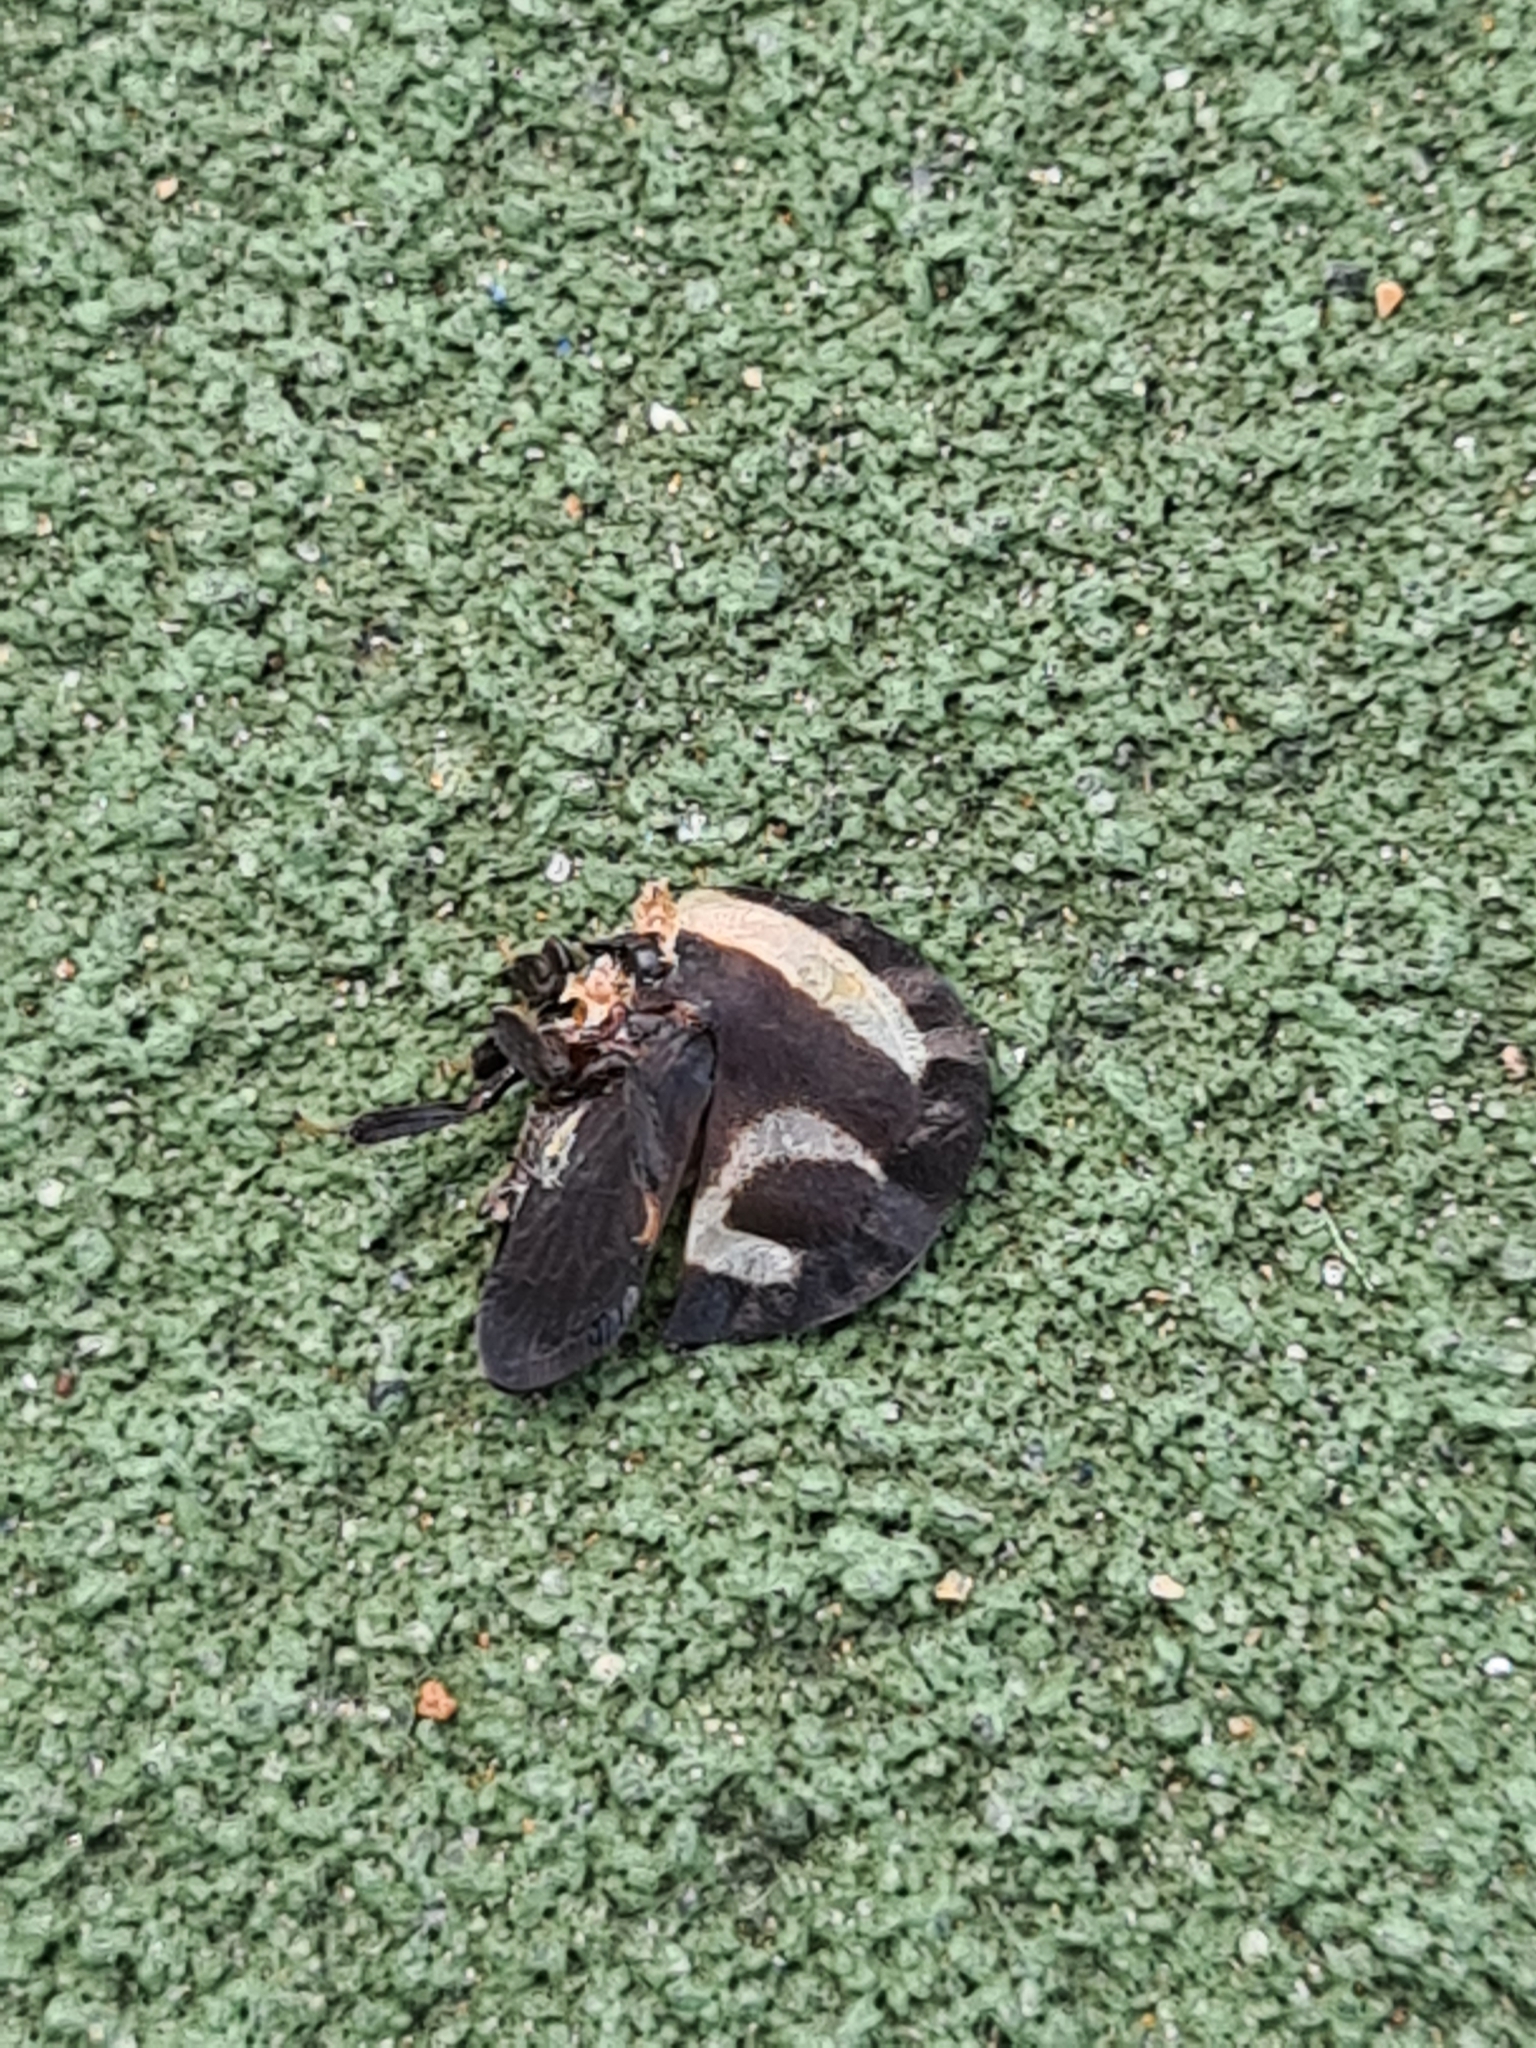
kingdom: Animalia
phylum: Arthropoda
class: Insecta
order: Hemiptera
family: Membracidae
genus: Membracis
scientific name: Membracis foliatafasciata
